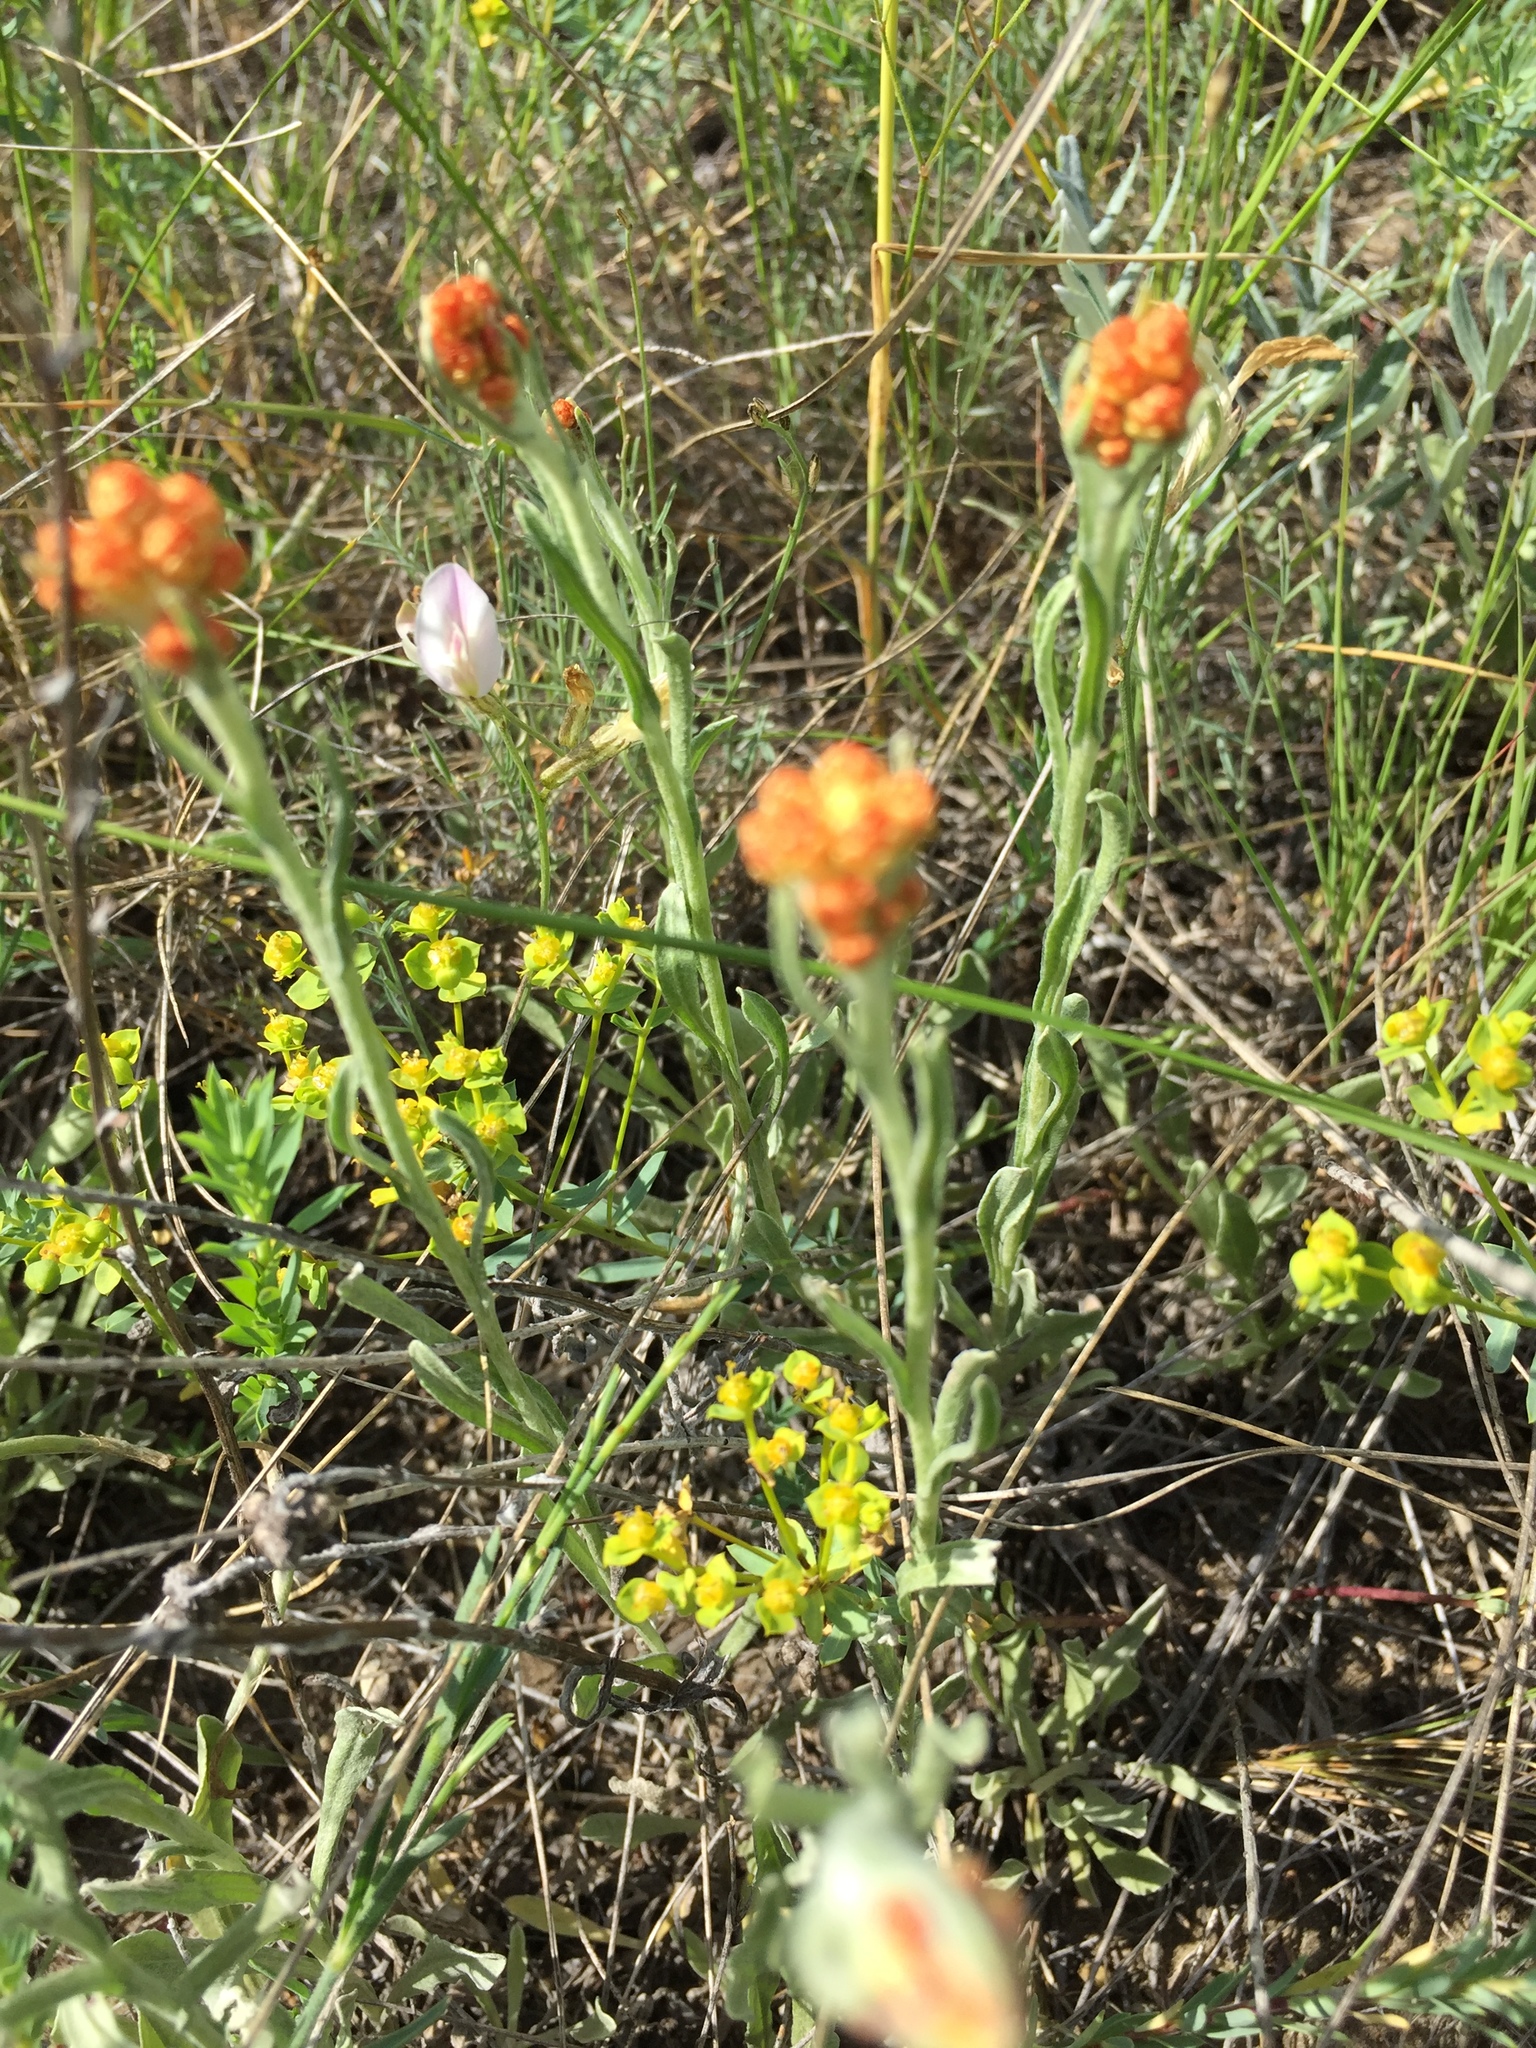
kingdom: Plantae
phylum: Tracheophyta
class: Magnoliopsida
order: Asterales
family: Asteraceae
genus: Helichrysum
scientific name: Helichrysum arenarium
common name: Strawflower
